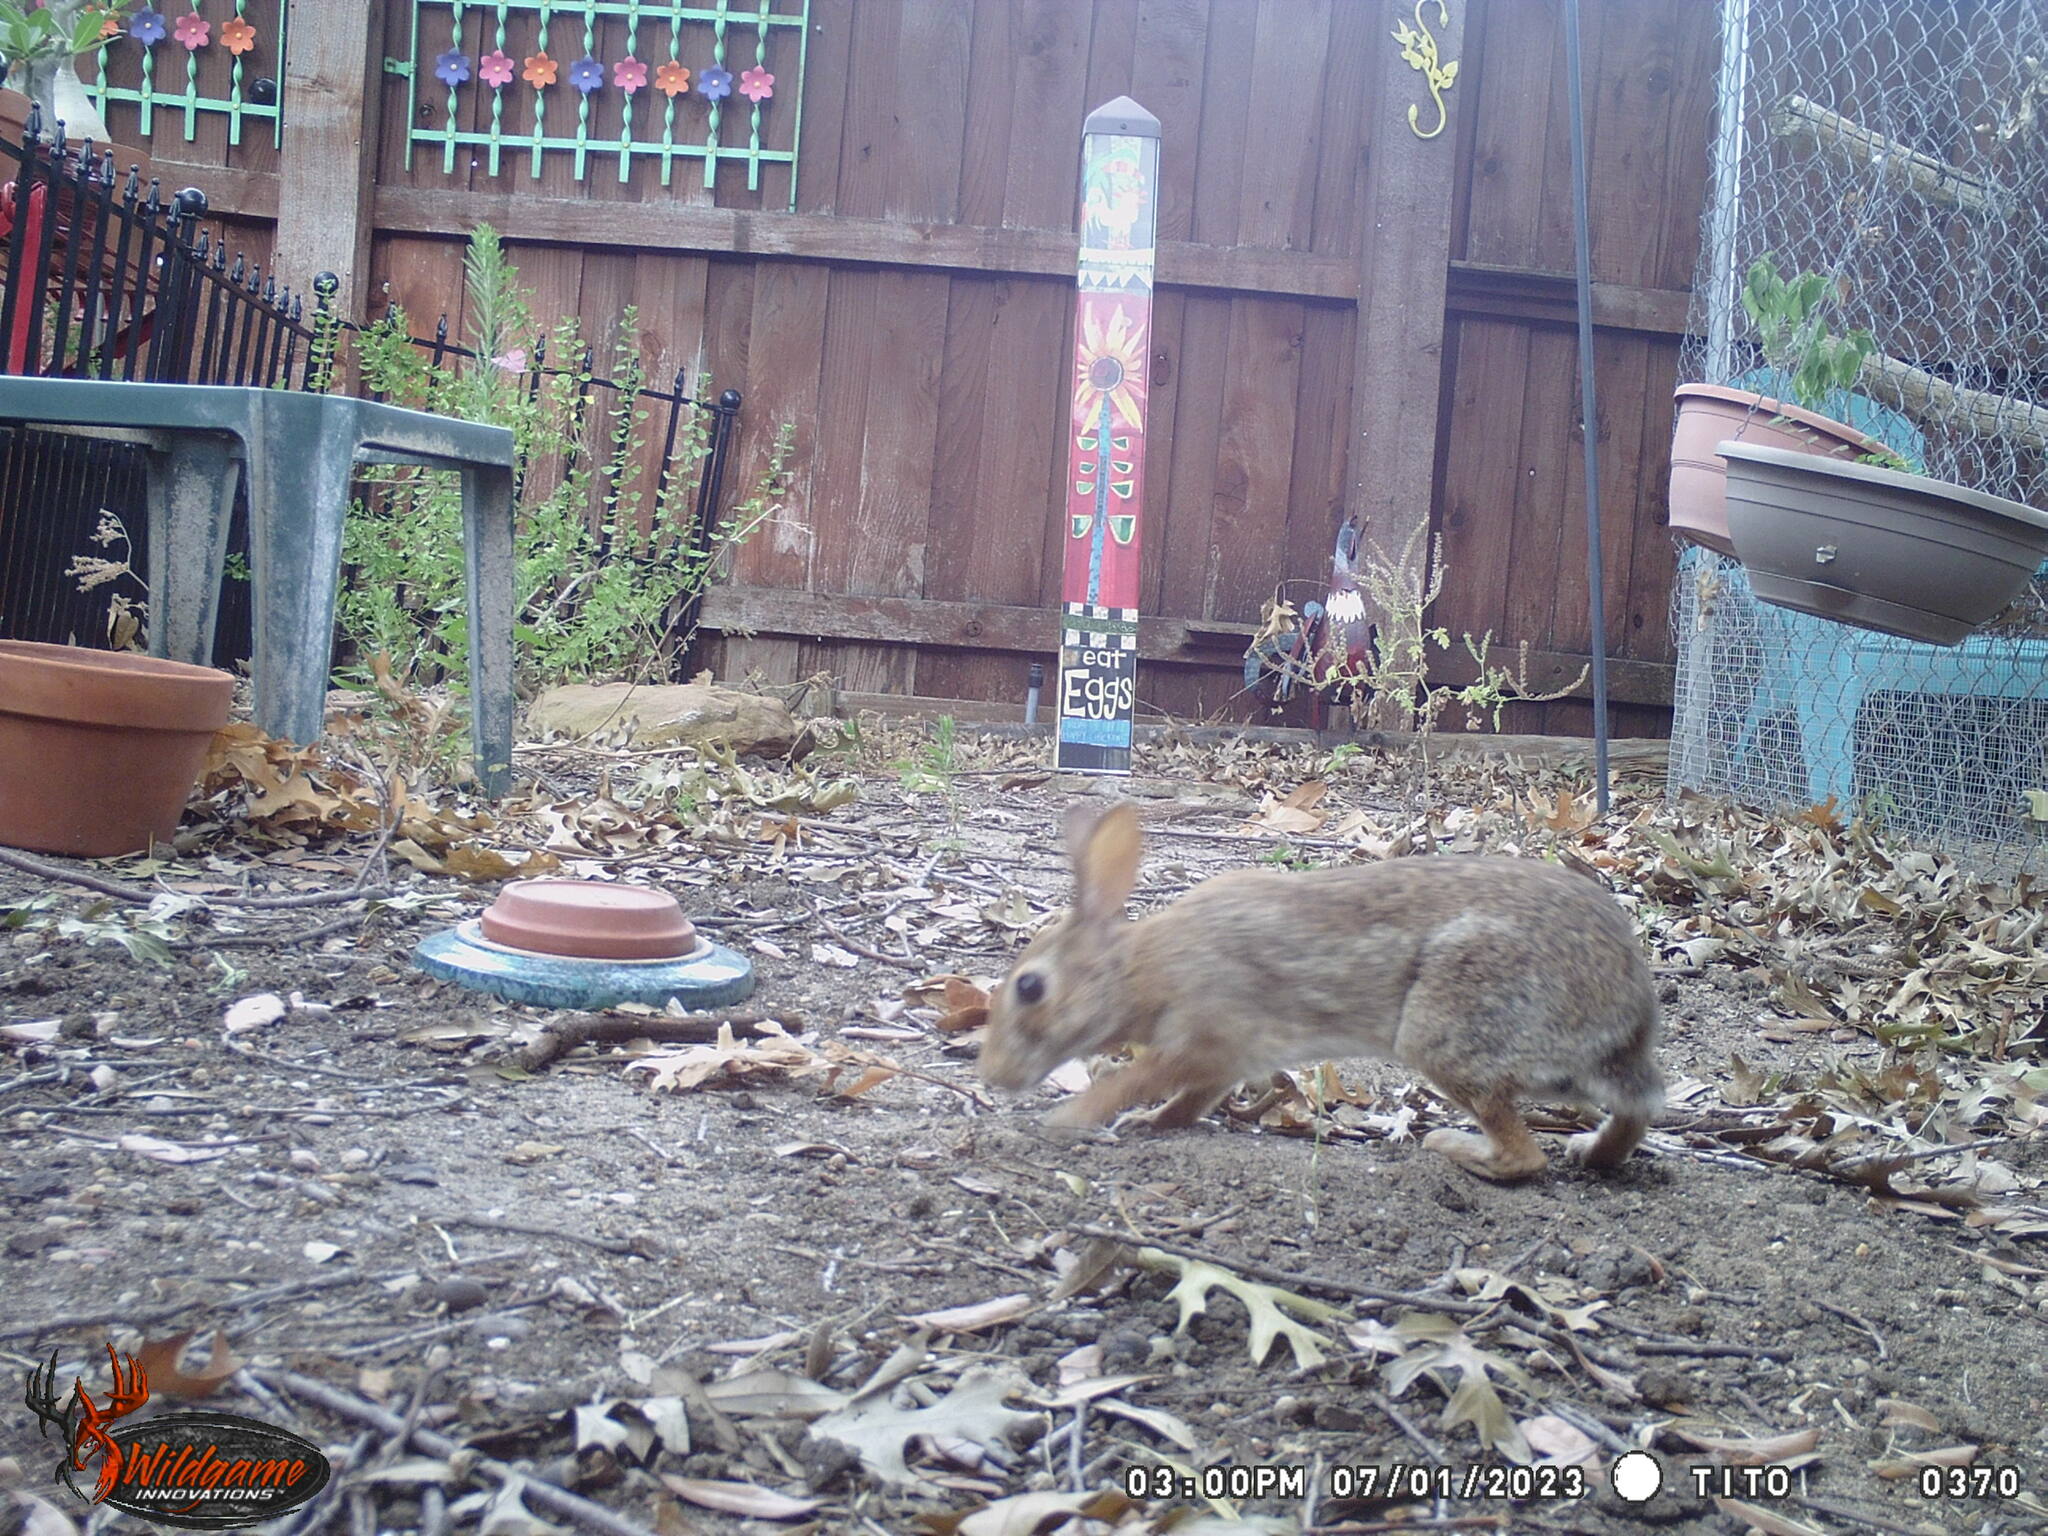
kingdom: Animalia
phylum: Chordata
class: Mammalia
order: Lagomorpha
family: Leporidae
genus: Sylvilagus
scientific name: Sylvilagus floridanus
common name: Eastern cottontail
